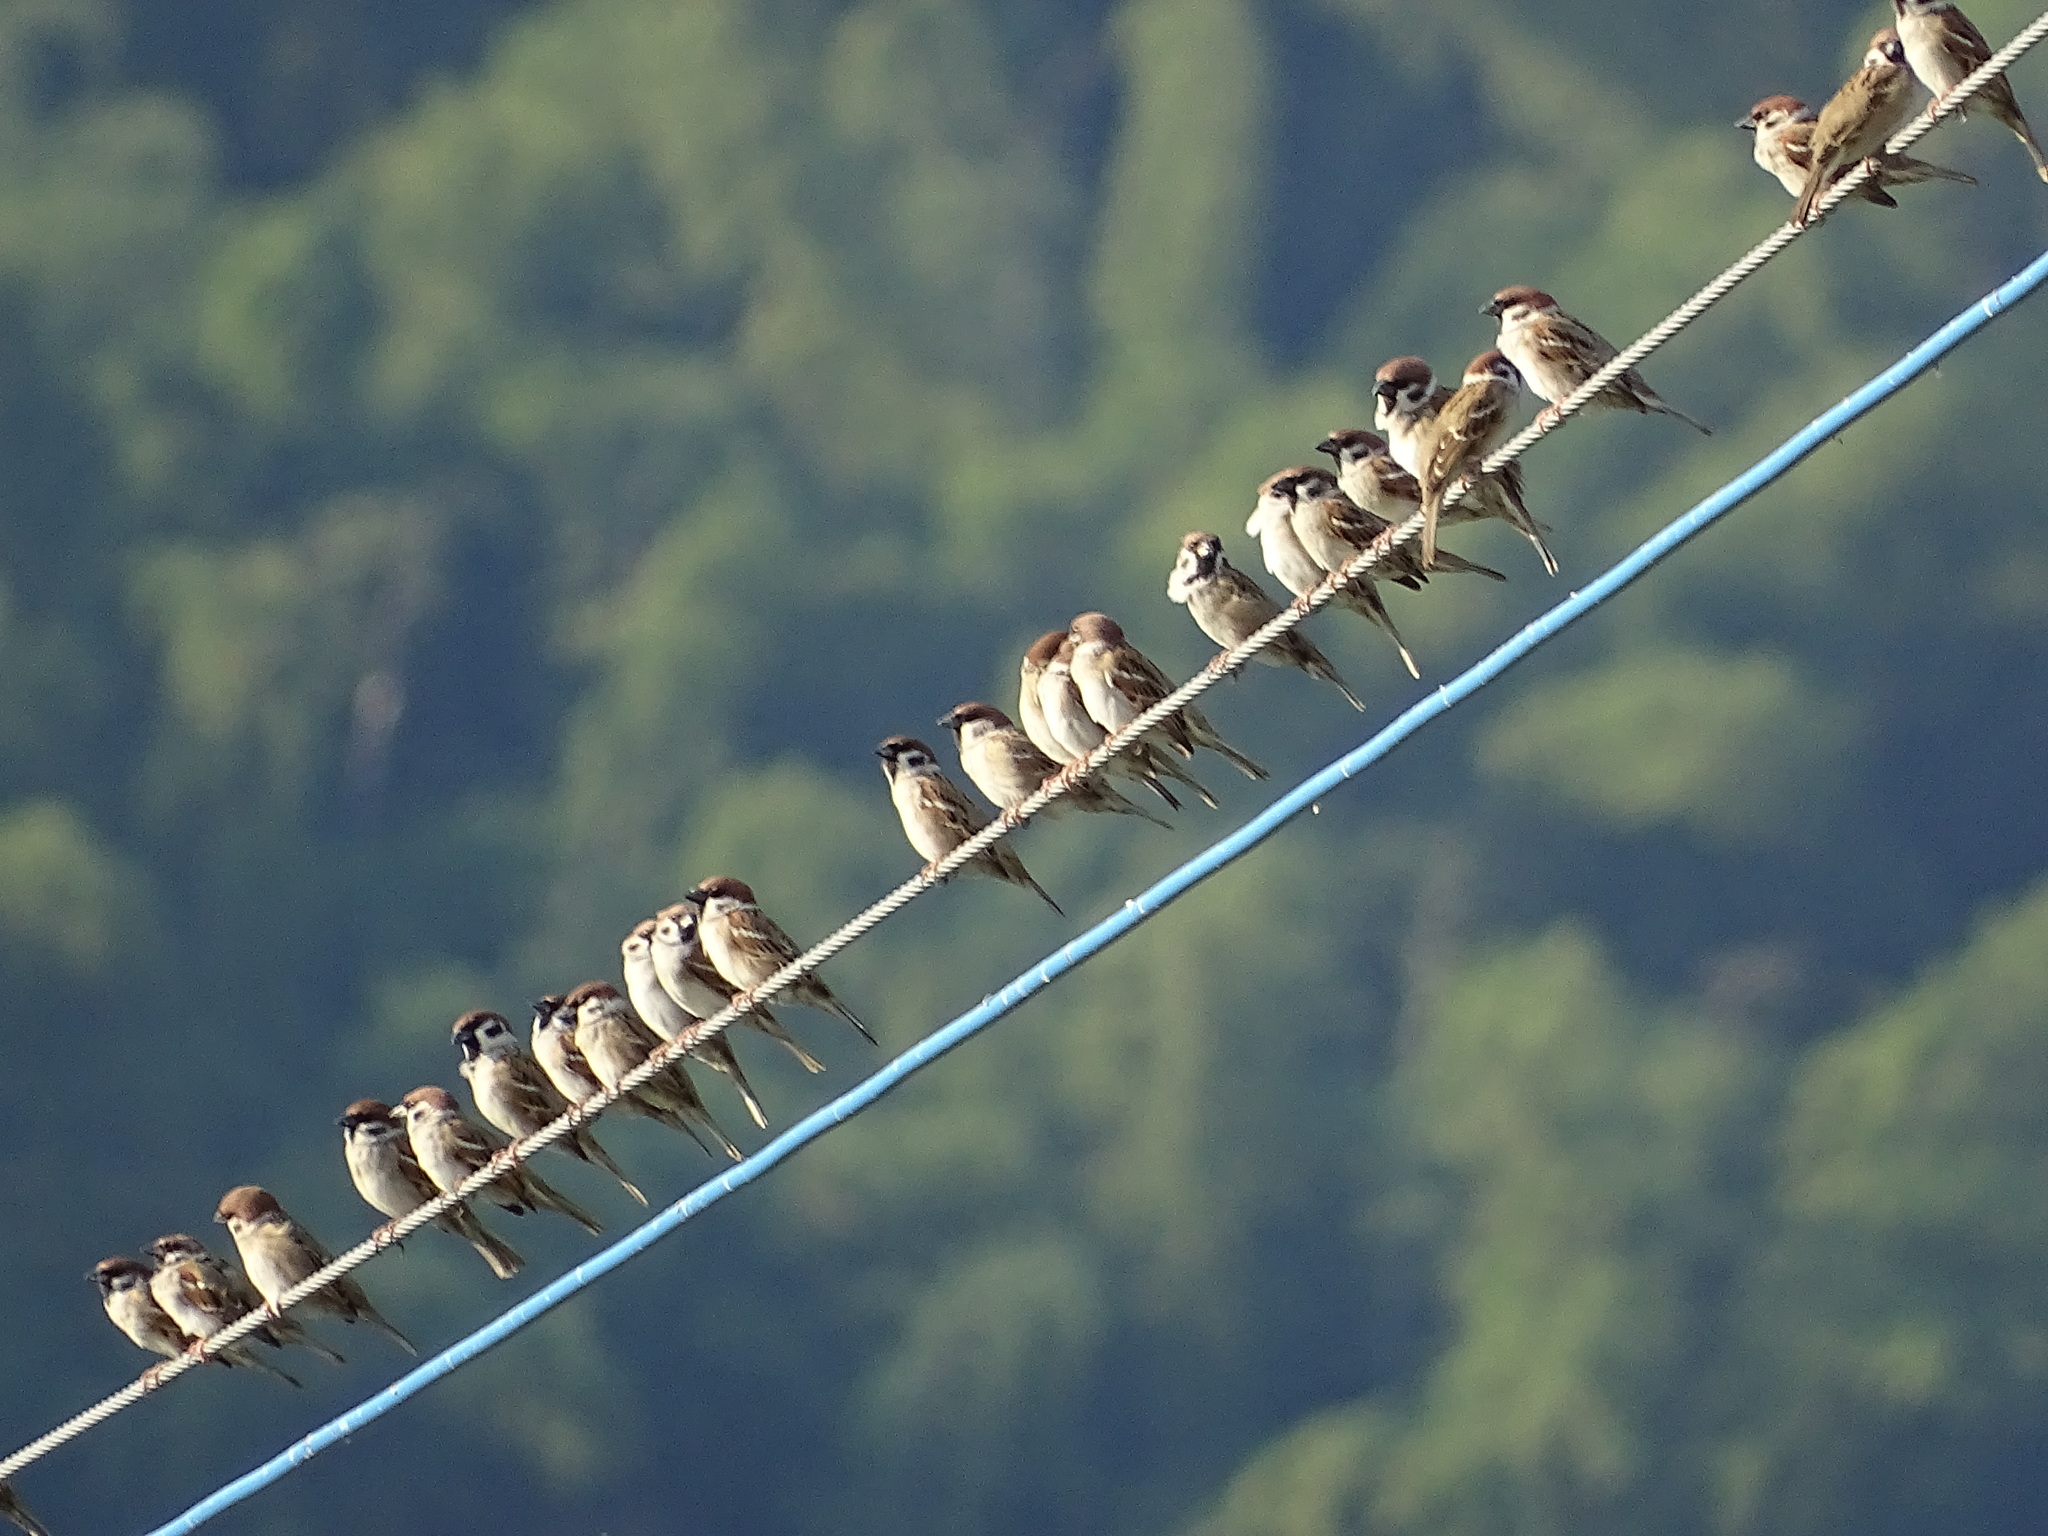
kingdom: Animalia
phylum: Chordata
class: Aves
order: Passeriformes
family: Passeridae
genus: Passer
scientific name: Passer montanus
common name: Eurasian tree sparrow
